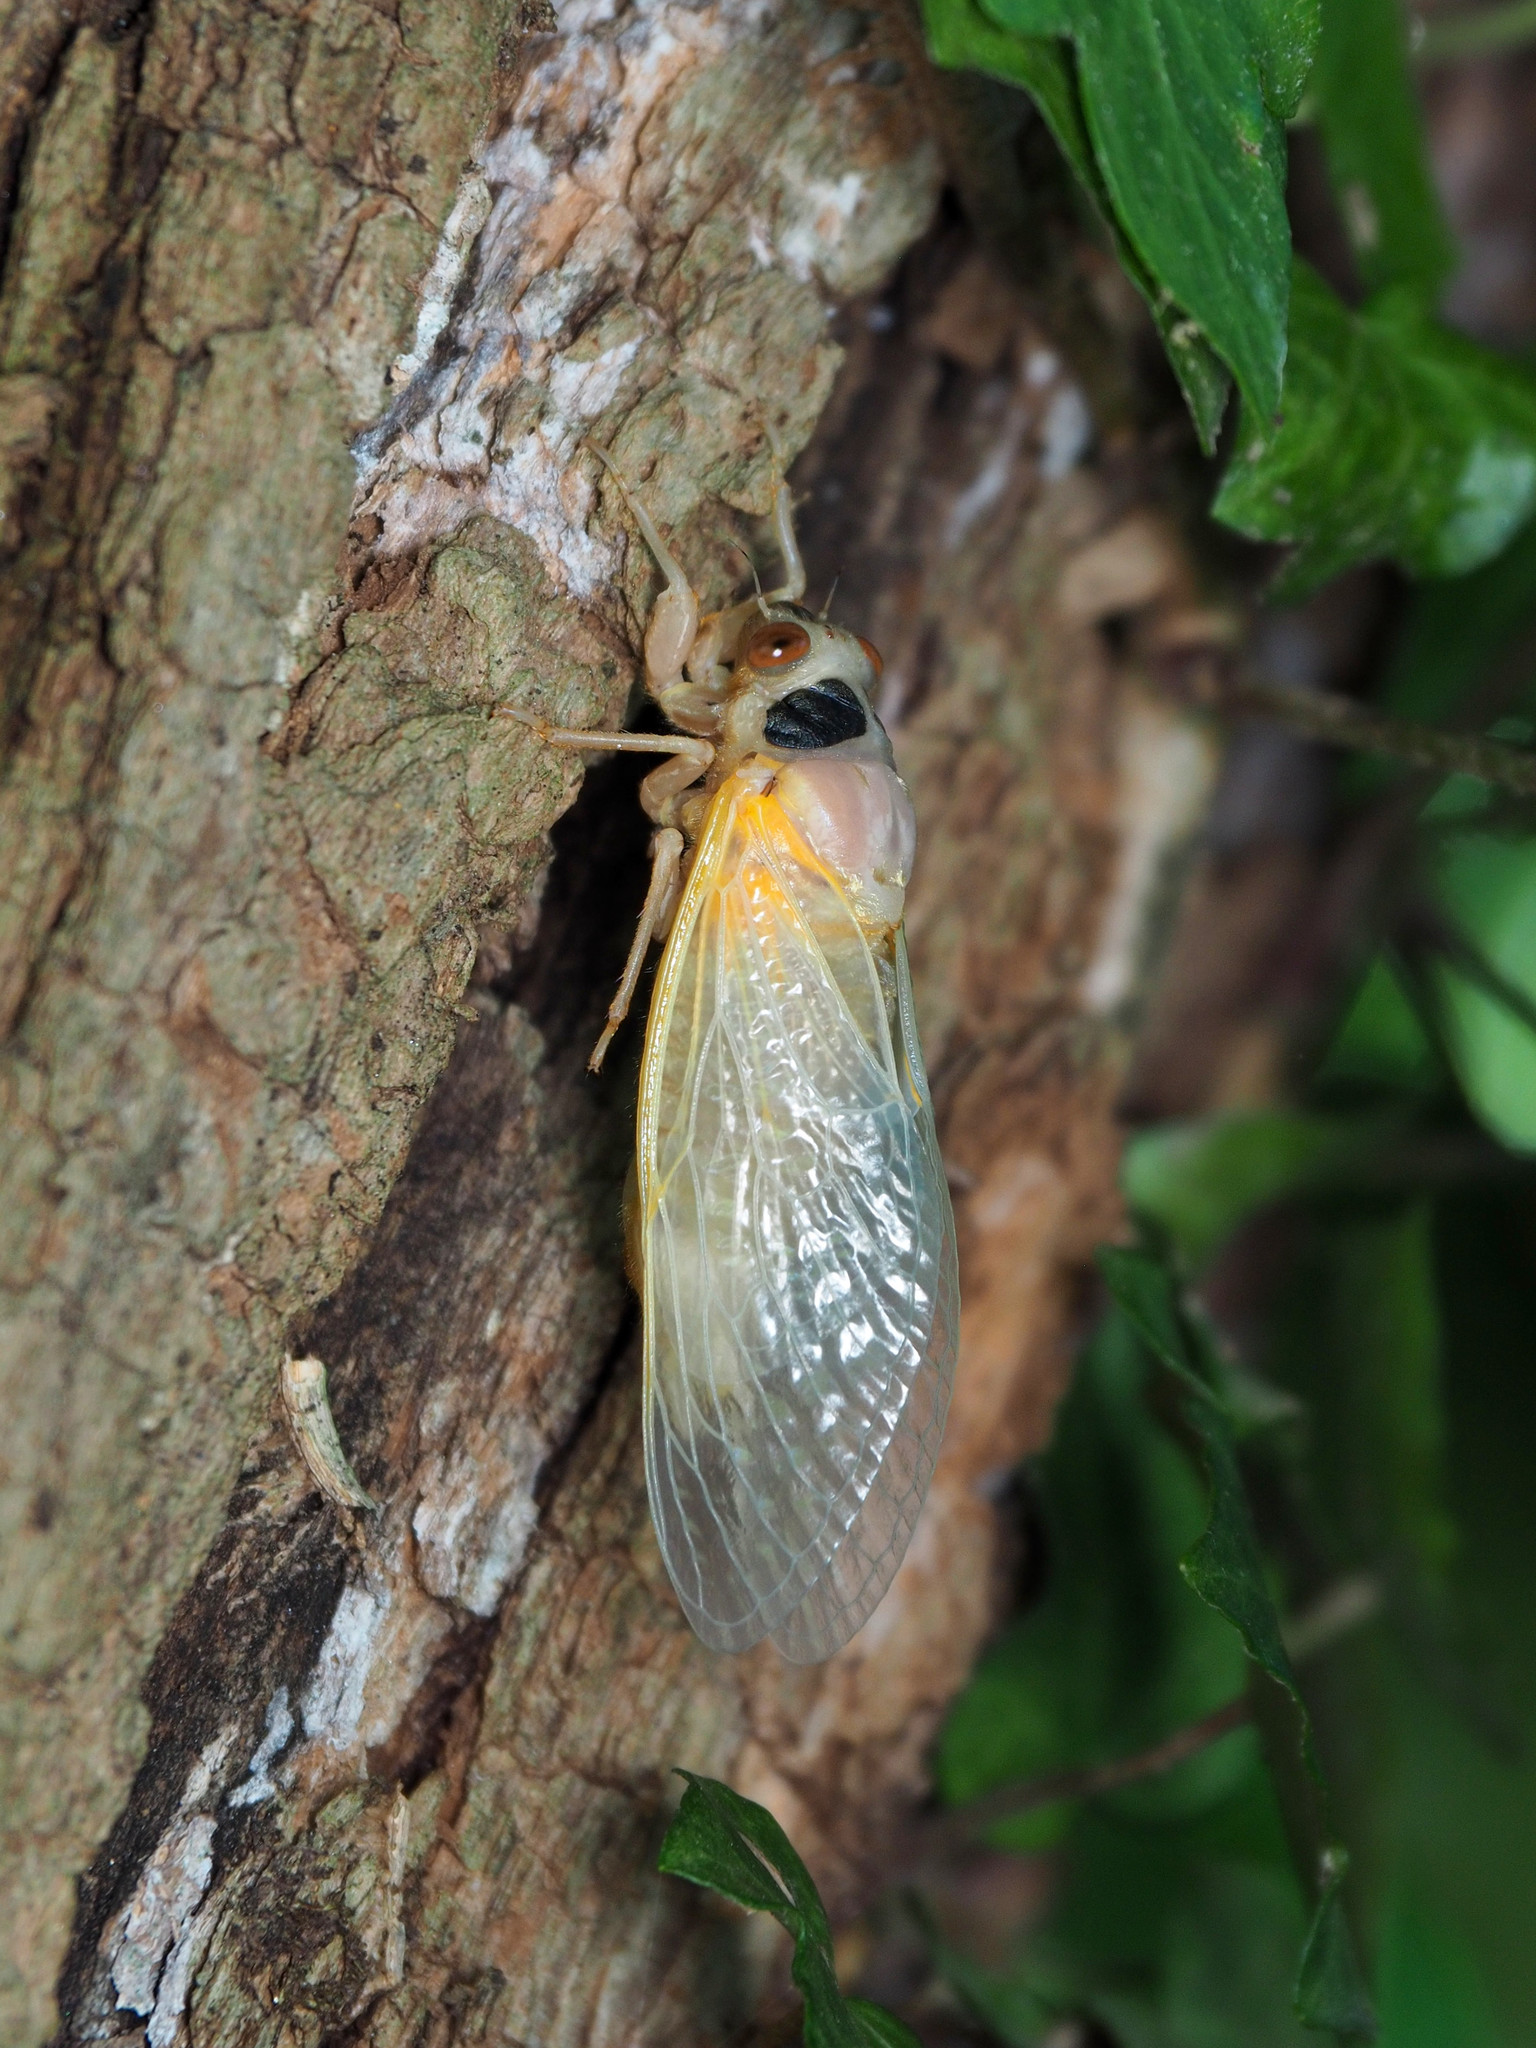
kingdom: Animalia
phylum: Arthropoda
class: Insecta
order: Hemiptera
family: Cicadidae
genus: Magicicada
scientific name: Magicicada
